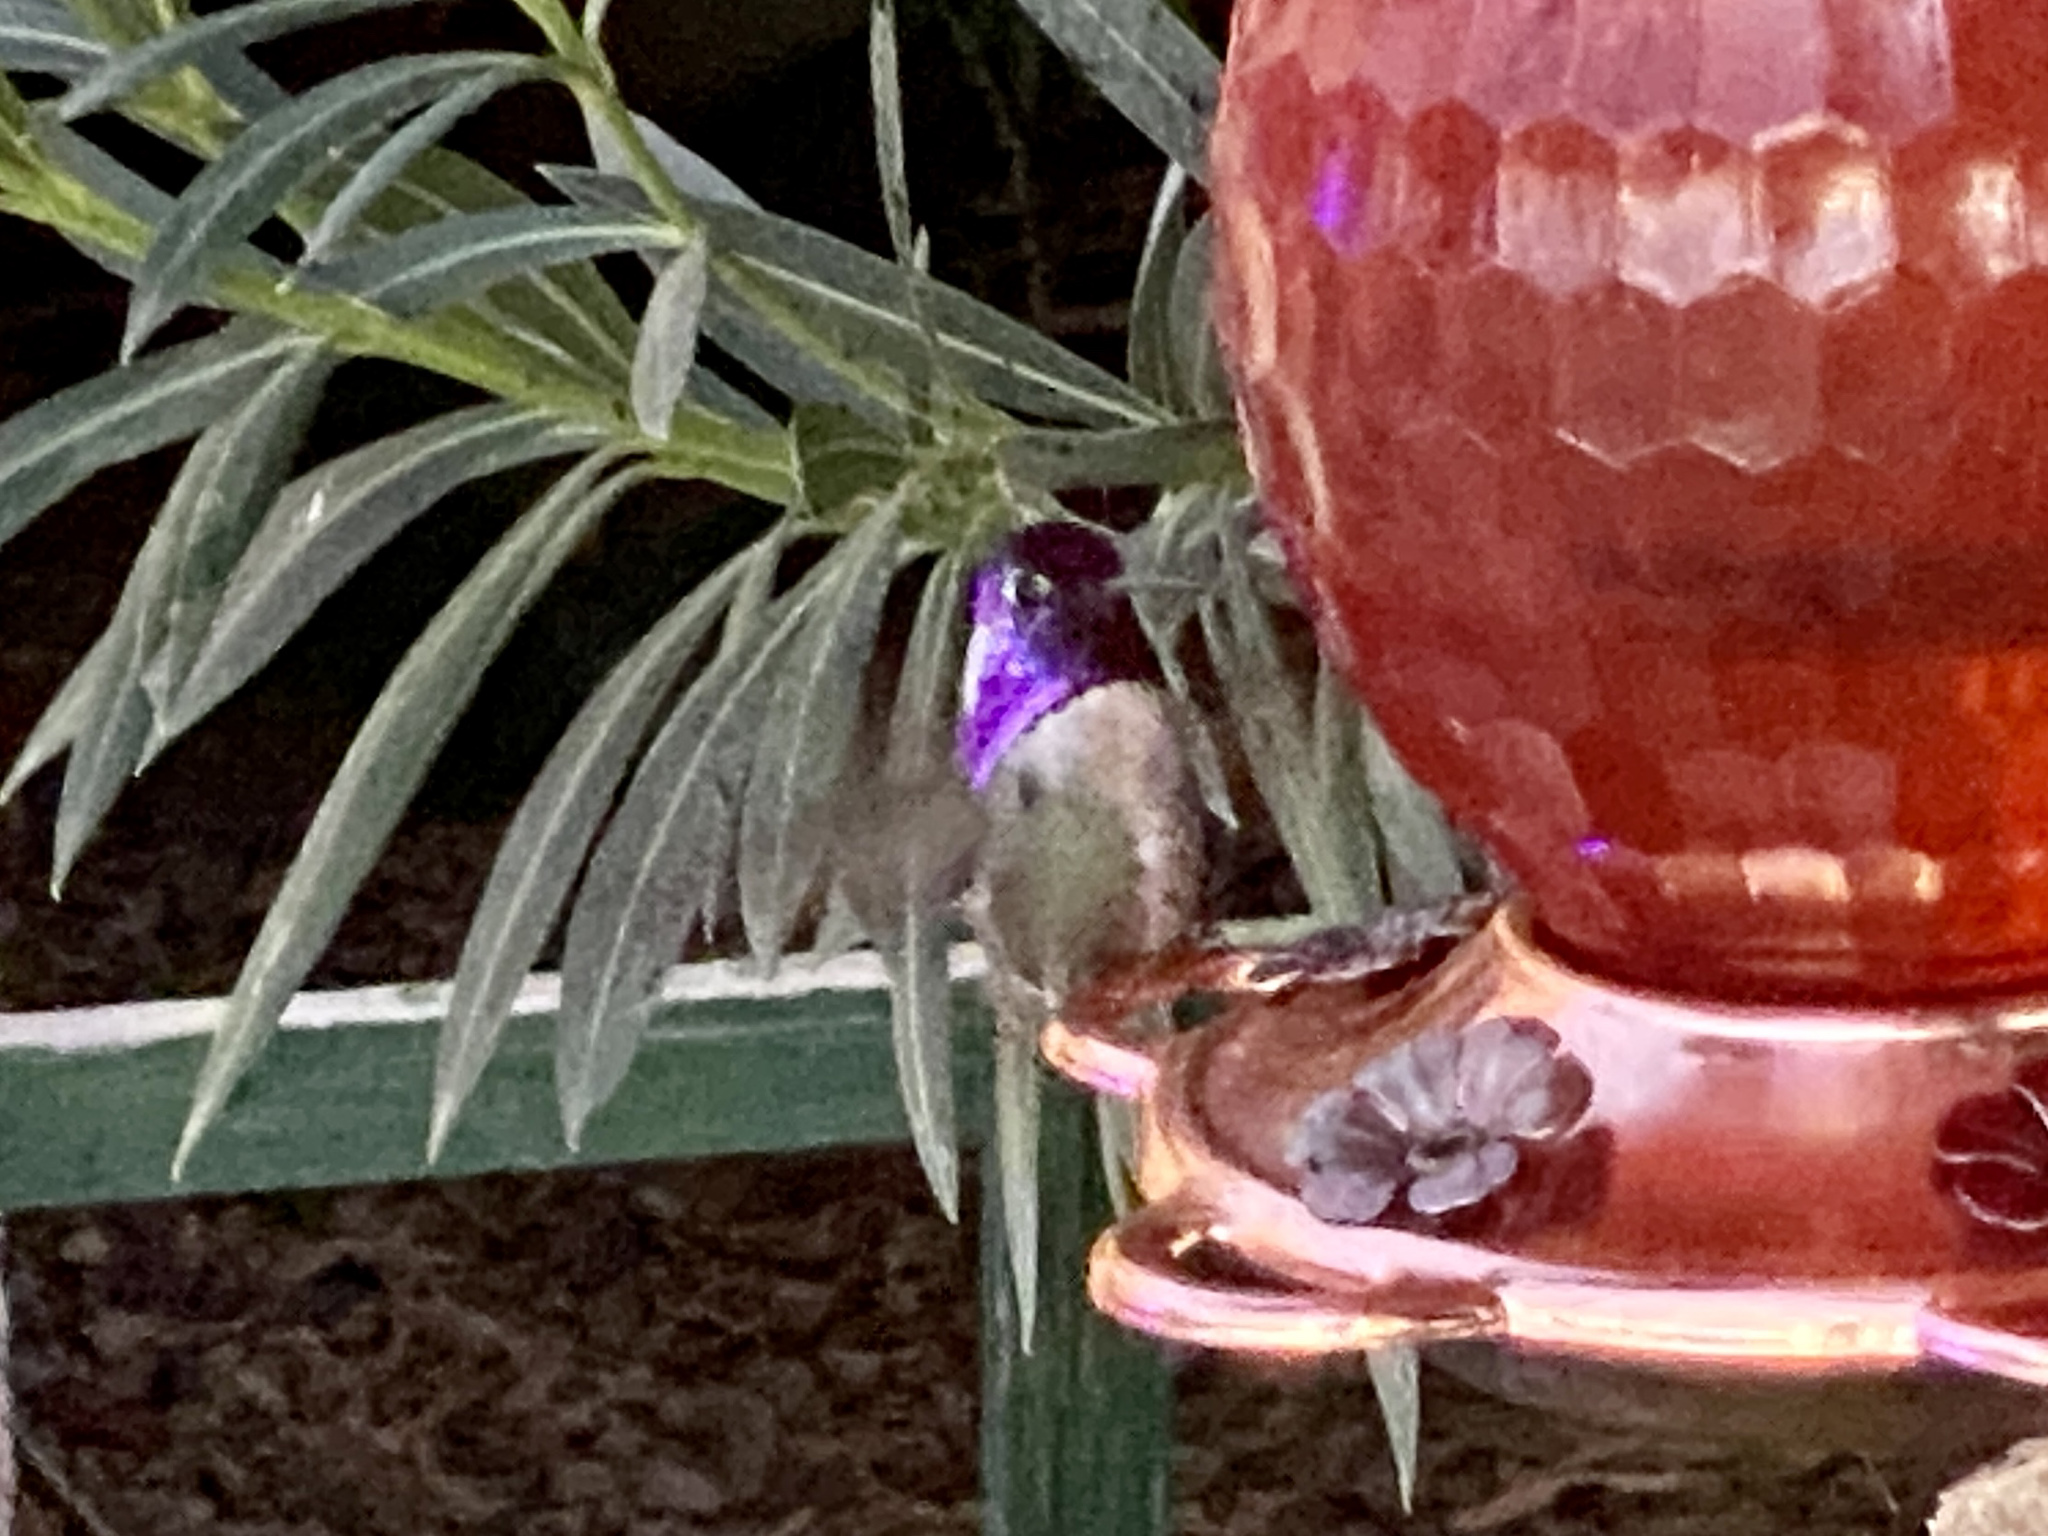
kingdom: Animalia
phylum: Chordata
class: Aves
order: Apodiformes
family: Trochilidae
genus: Calypte
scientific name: Calypte costae
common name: Costa's hummingbird
